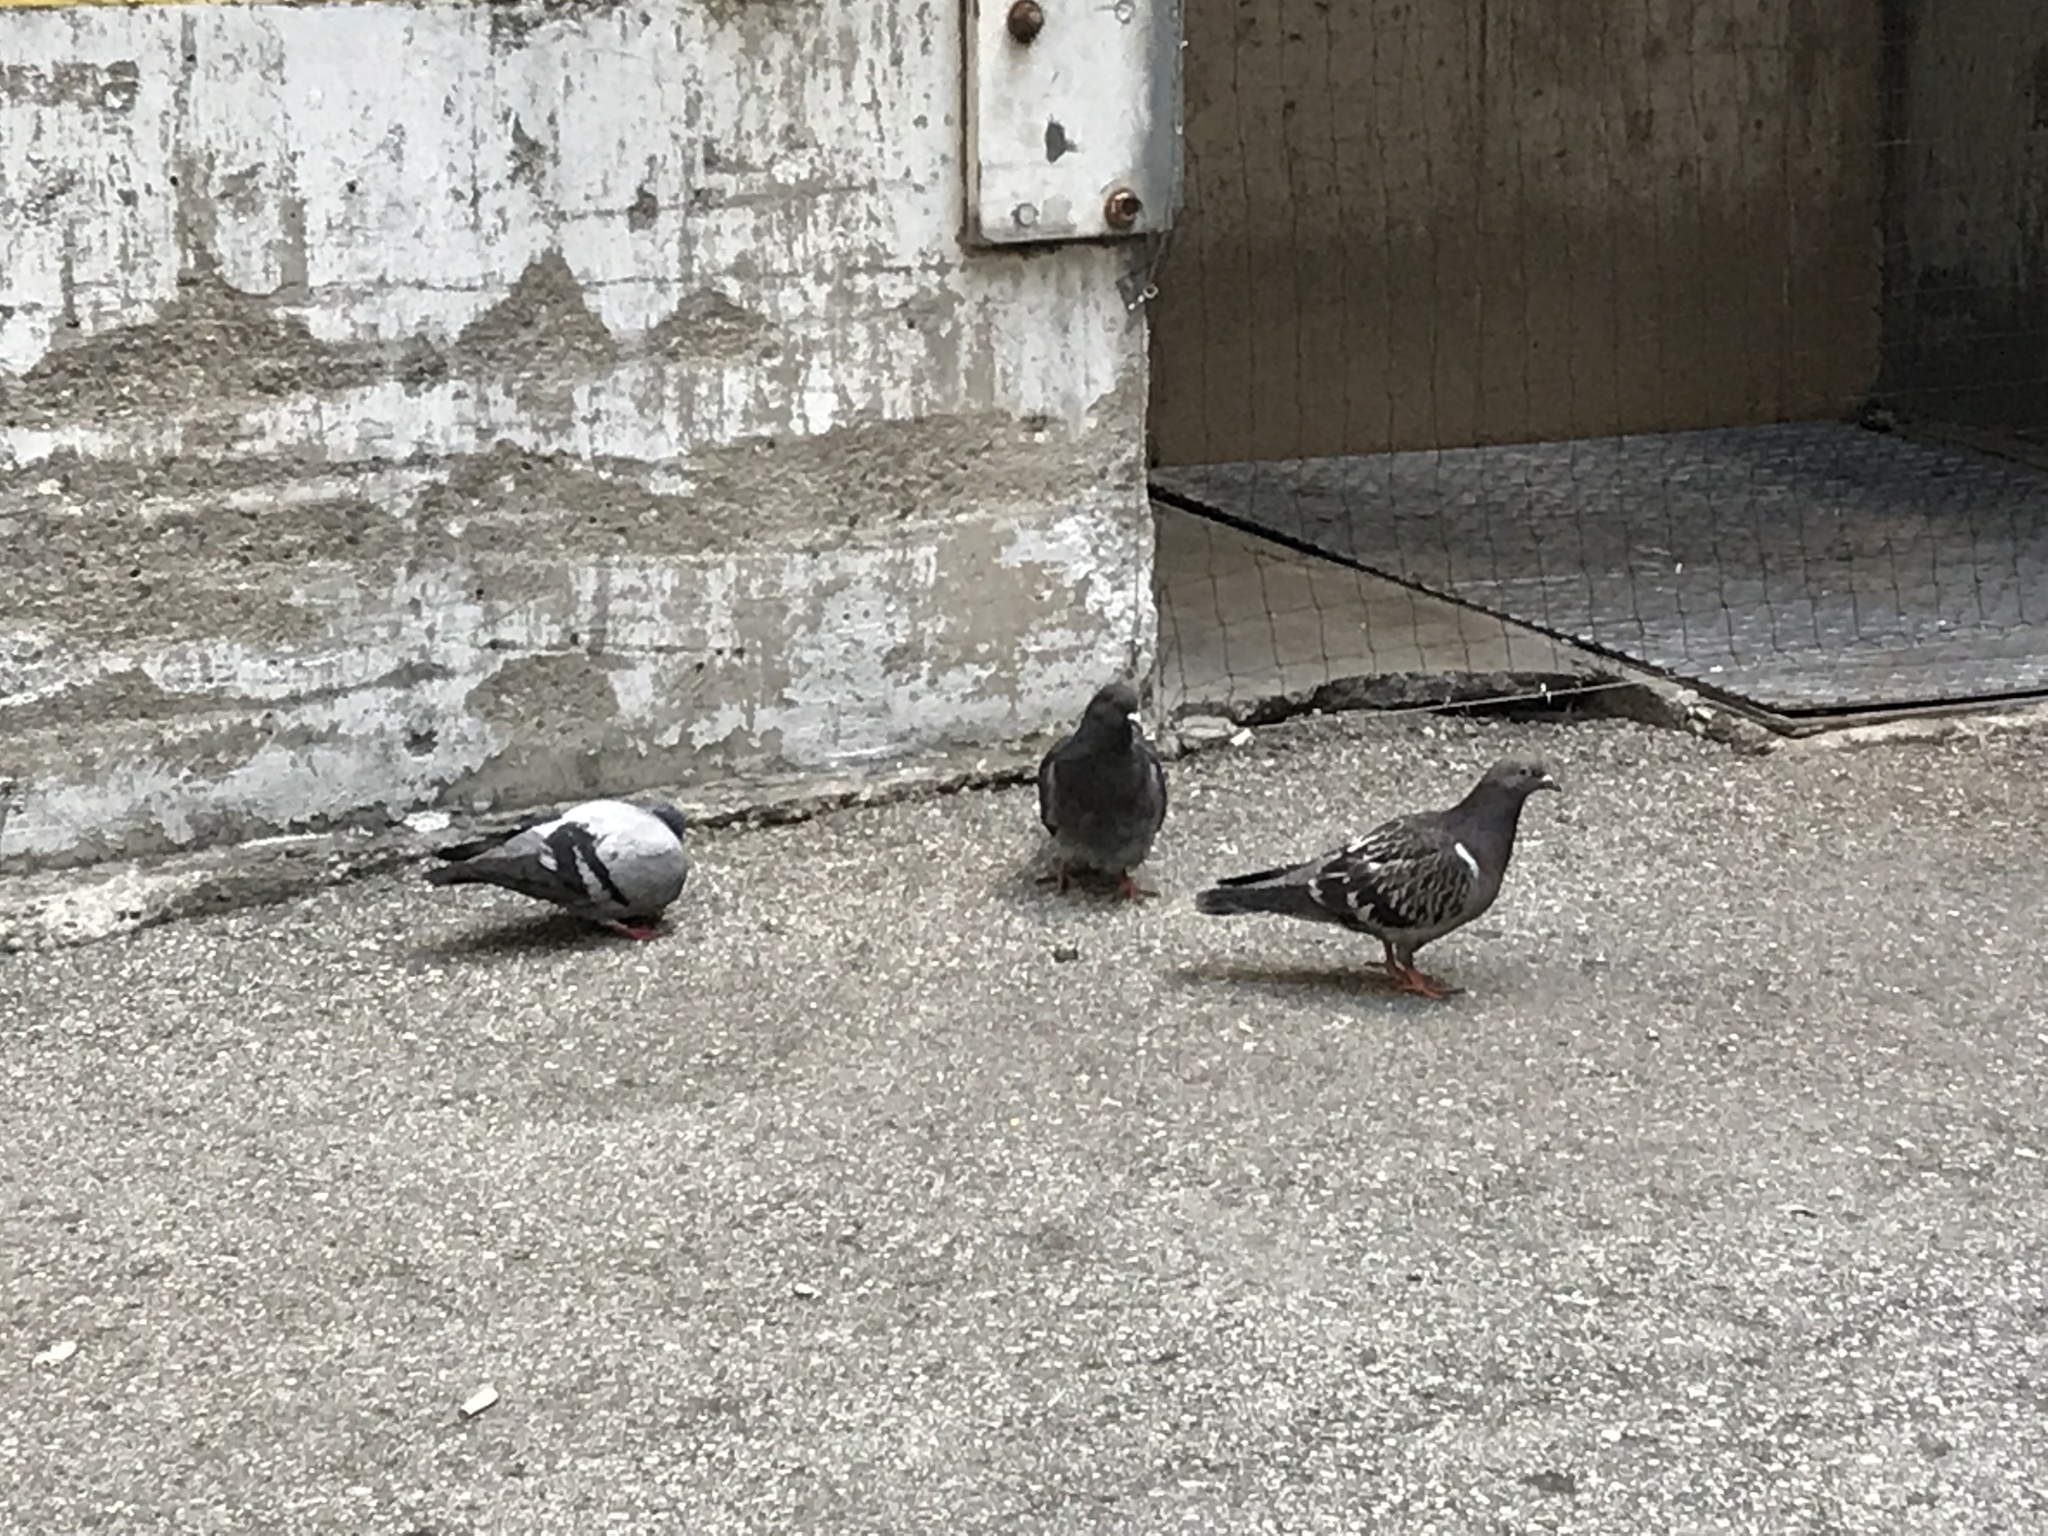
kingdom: Animalia
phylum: Chordata
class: Aves
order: Columbiformes
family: Columbidae
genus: Columba
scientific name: Columba livia
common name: Rock pigeon
